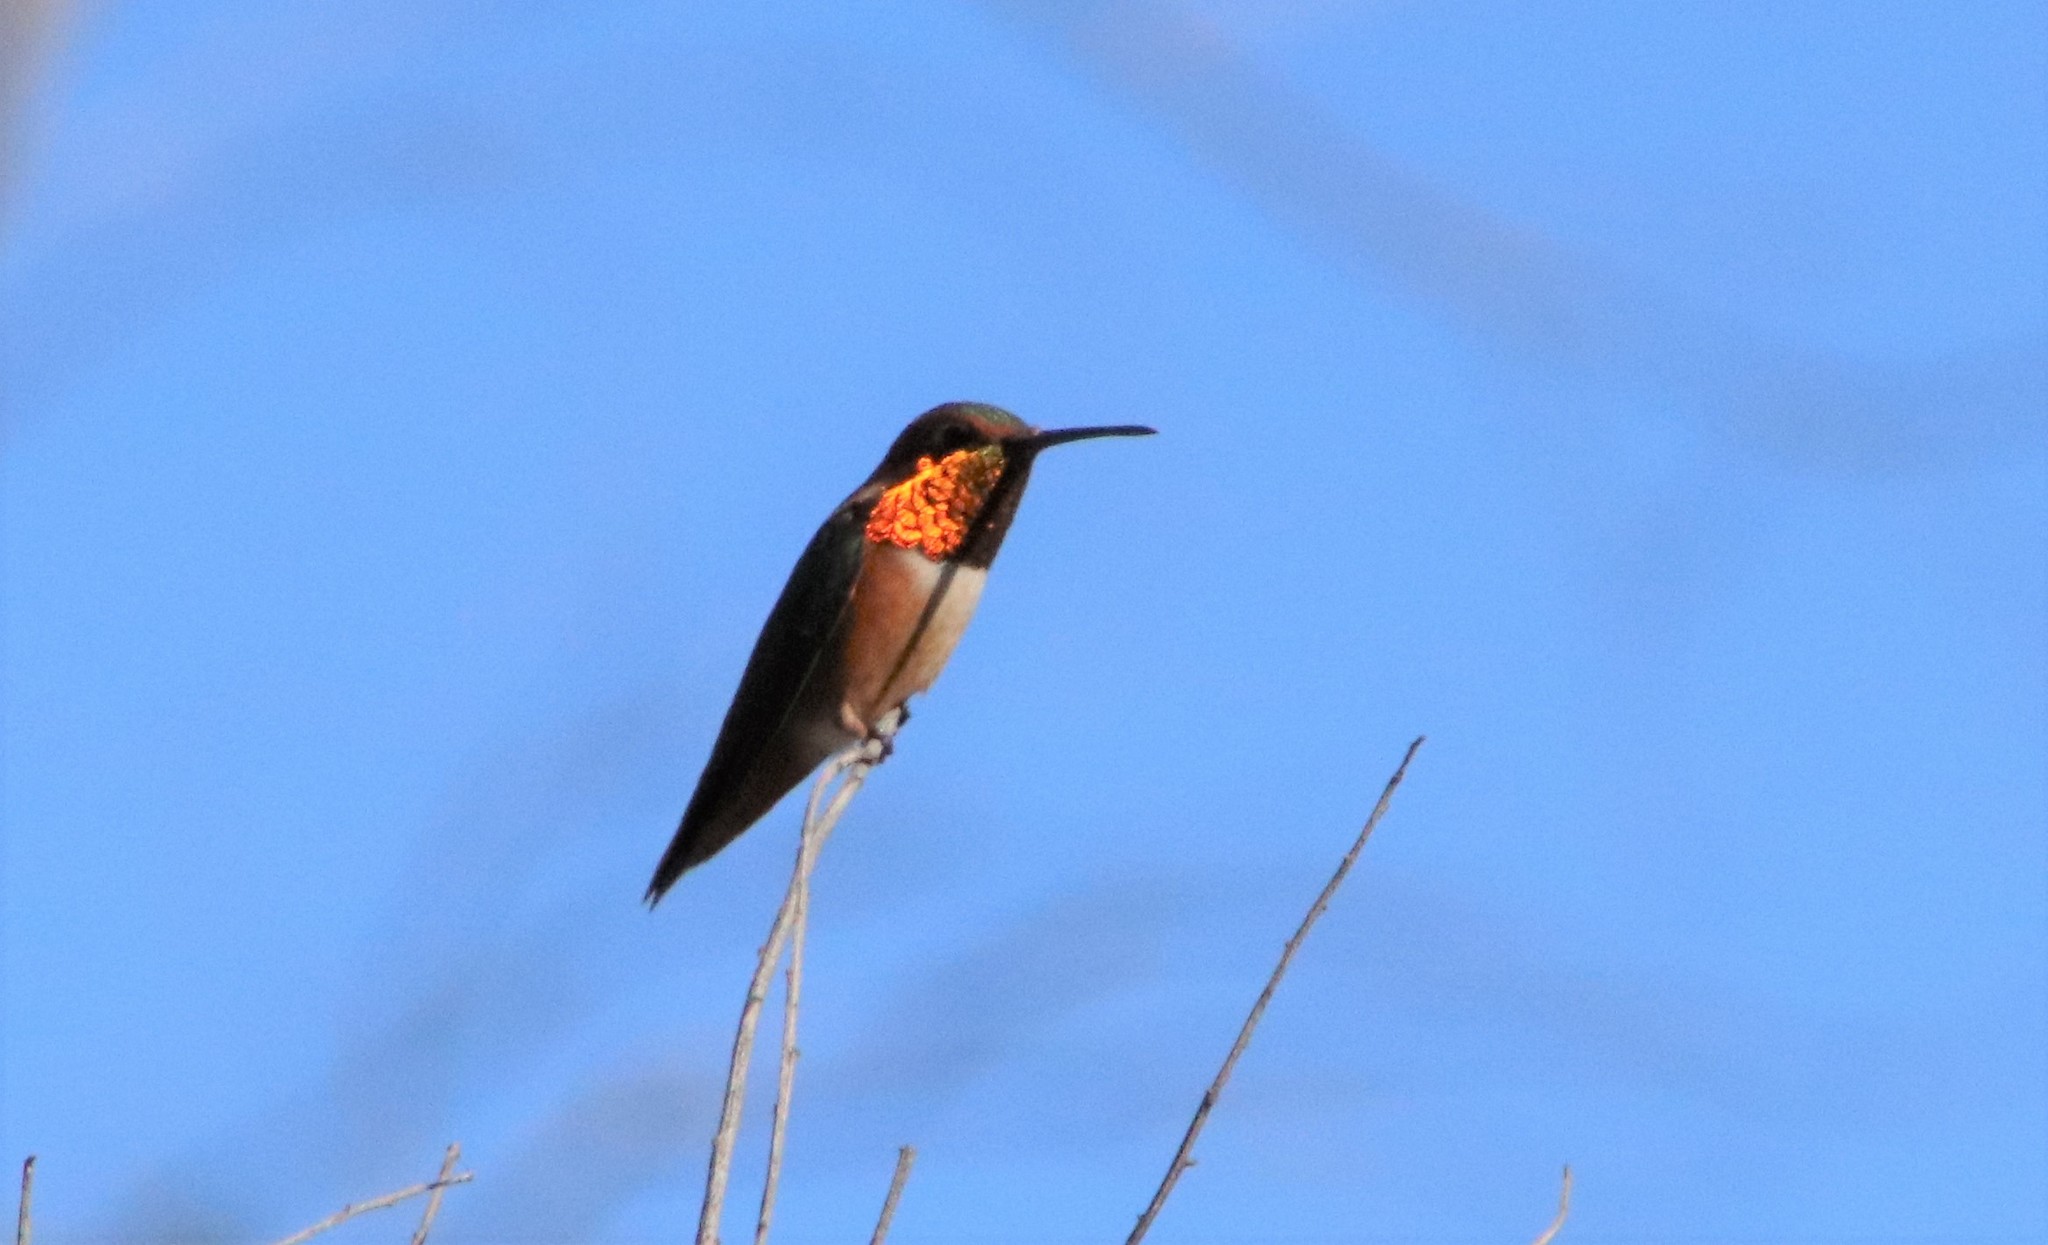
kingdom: Animalia
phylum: Chordata
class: Aves
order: Apodiformes
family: Trochilidae
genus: Selasphorus
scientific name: Selasphorus
